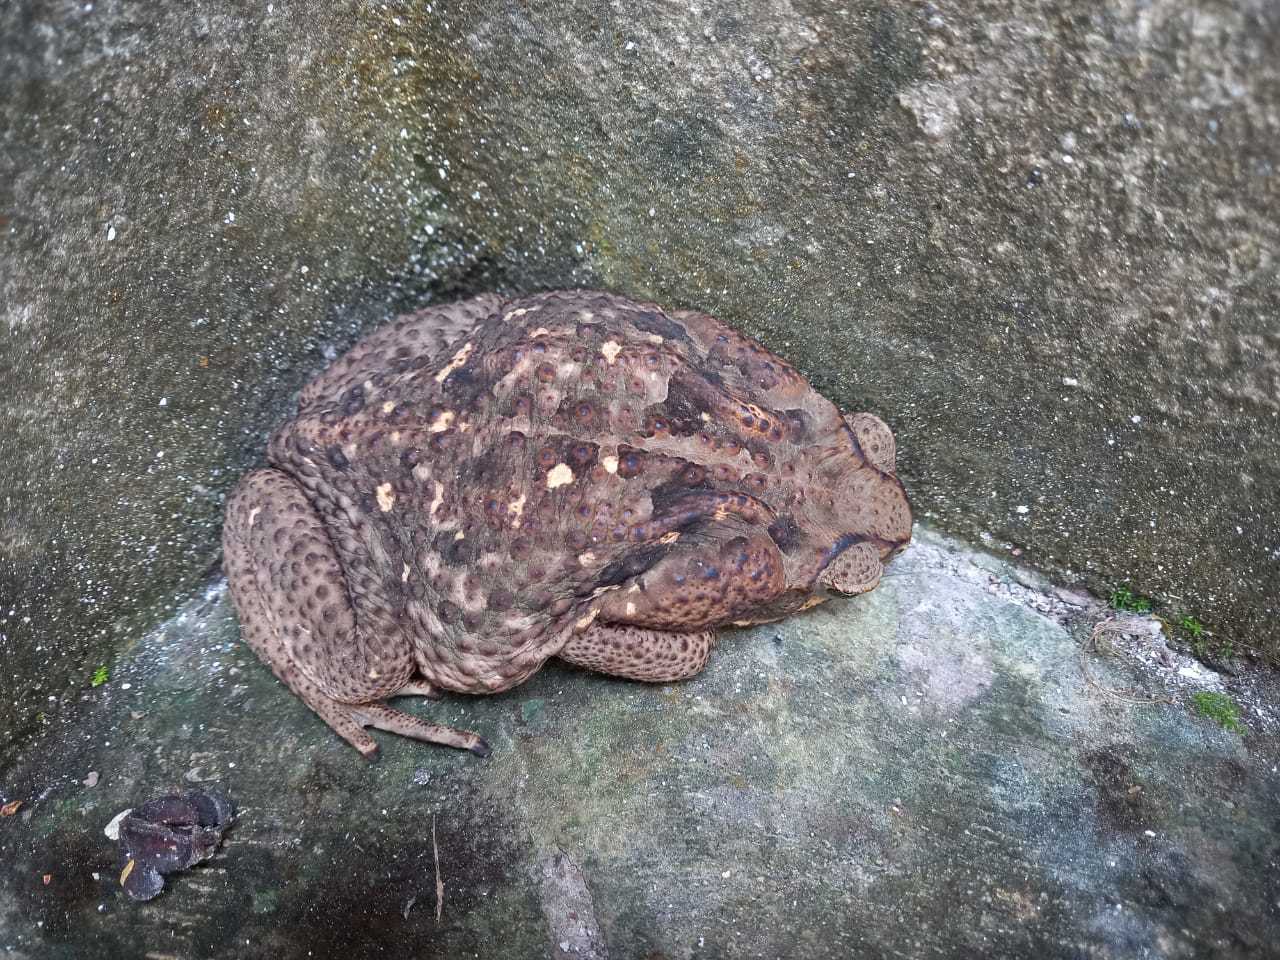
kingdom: Animalia
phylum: Chordata
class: Amphibia
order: Anura
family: Bufonidae
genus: Rhinella
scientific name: Rhinella horribilis
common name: Mesoamerican cane toad
